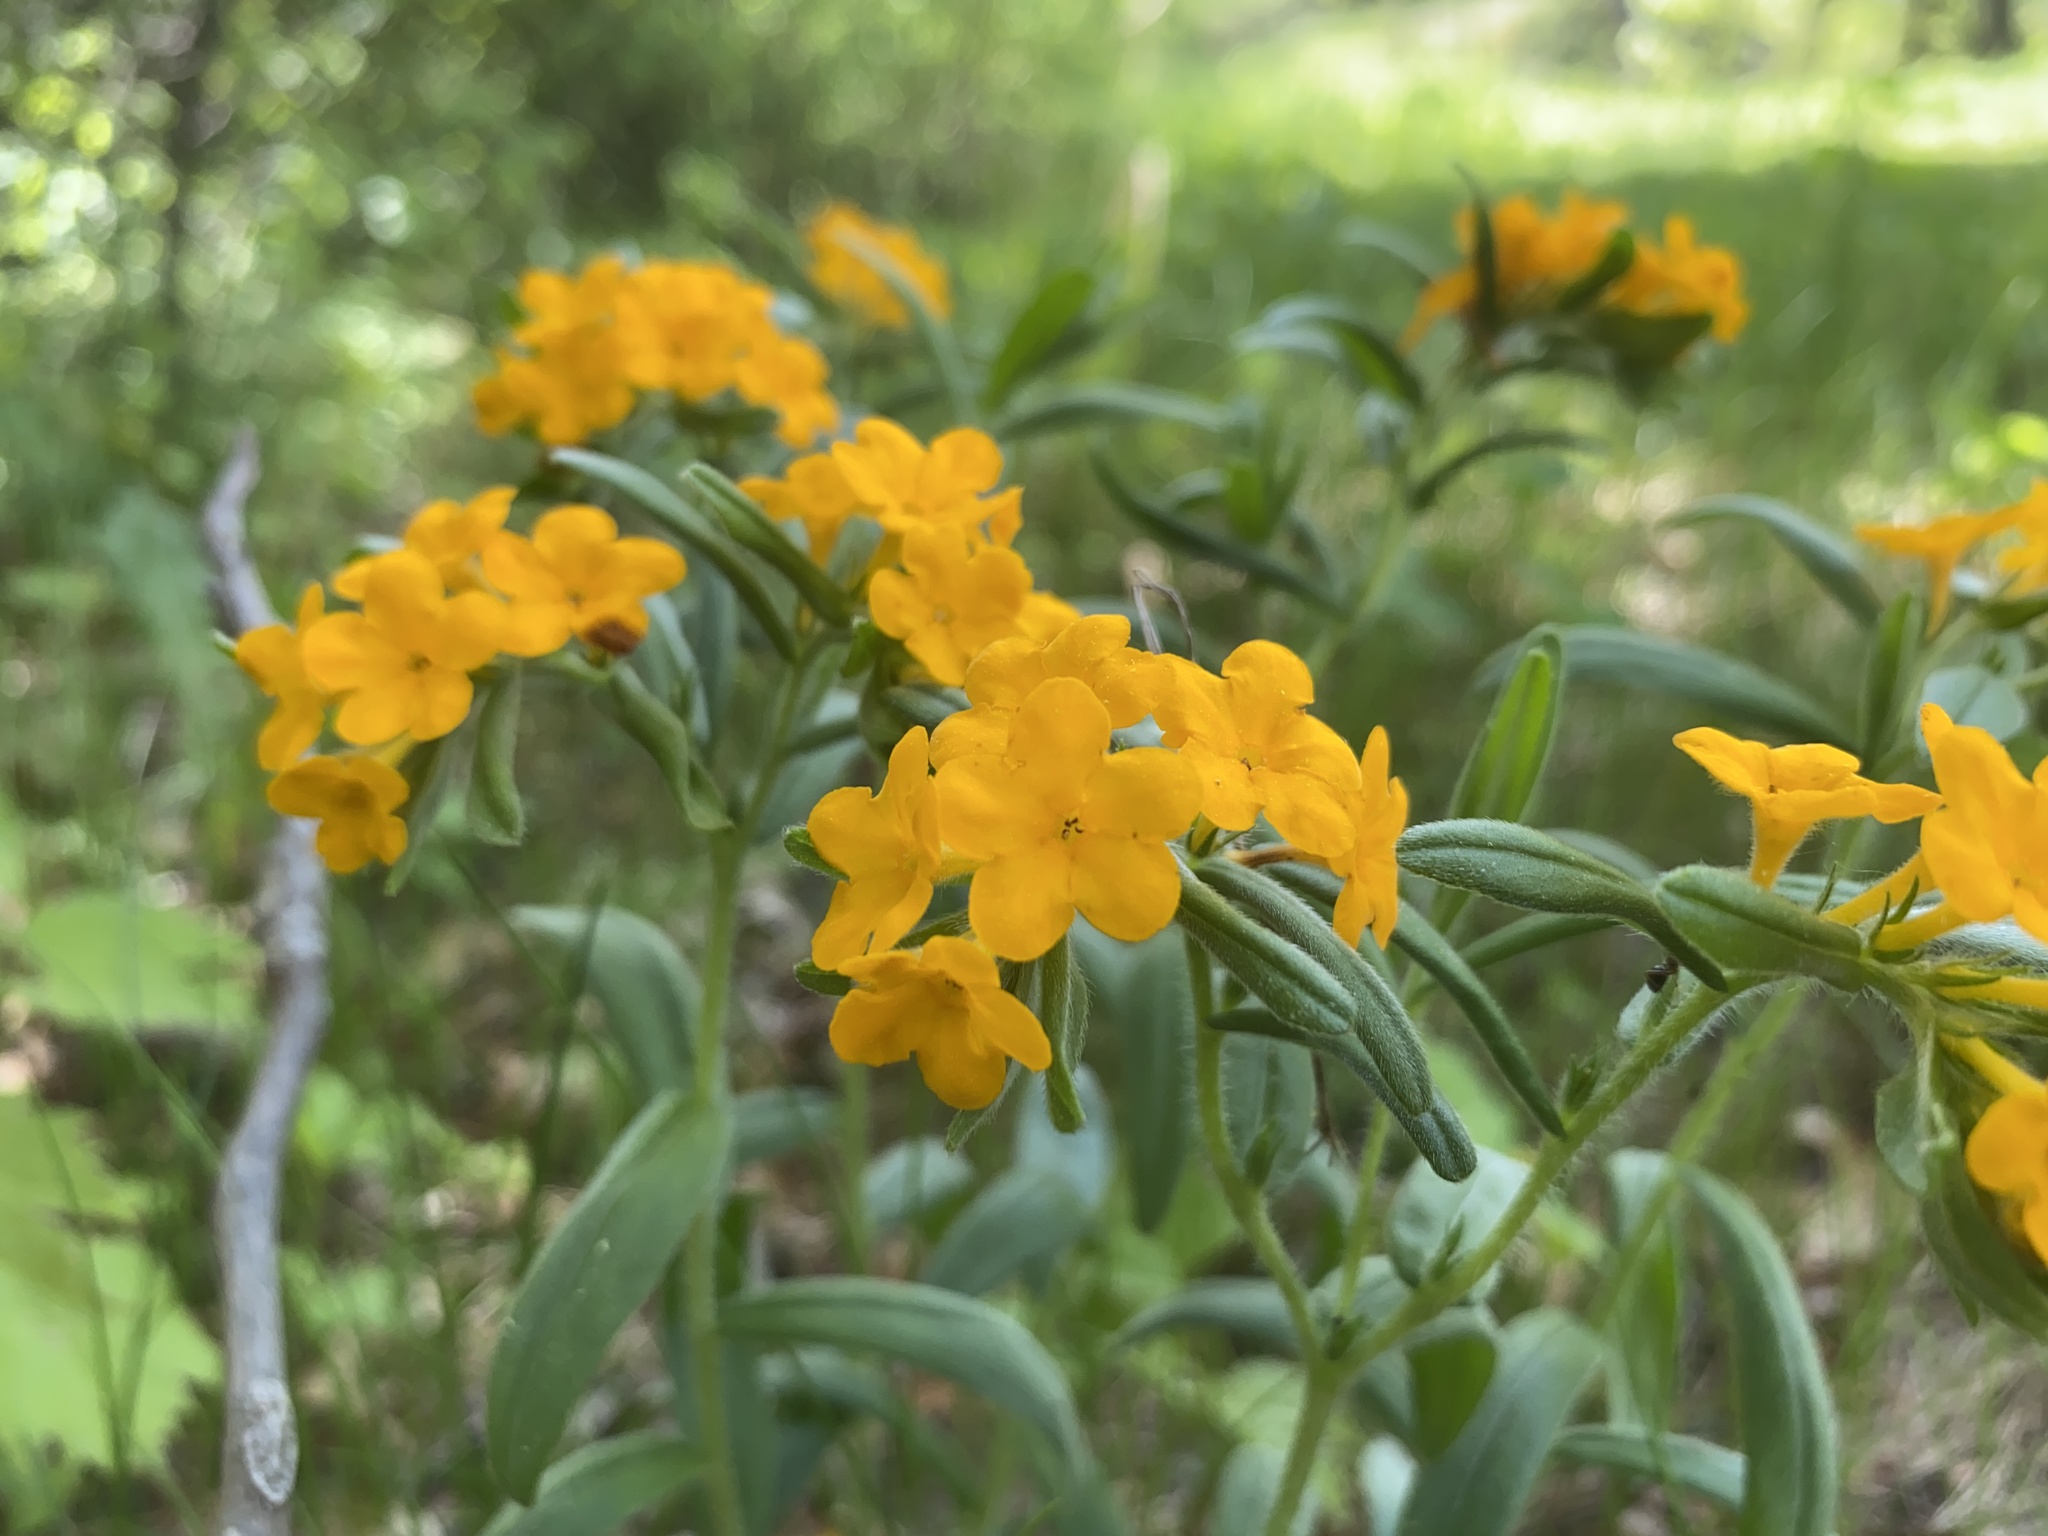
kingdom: Plantae
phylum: Tracheophyta
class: Magnoliopsida
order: Boraginales
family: Boraginaceae
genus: Lithospermum
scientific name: Lithospermum canescens
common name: Hoary puccoon
